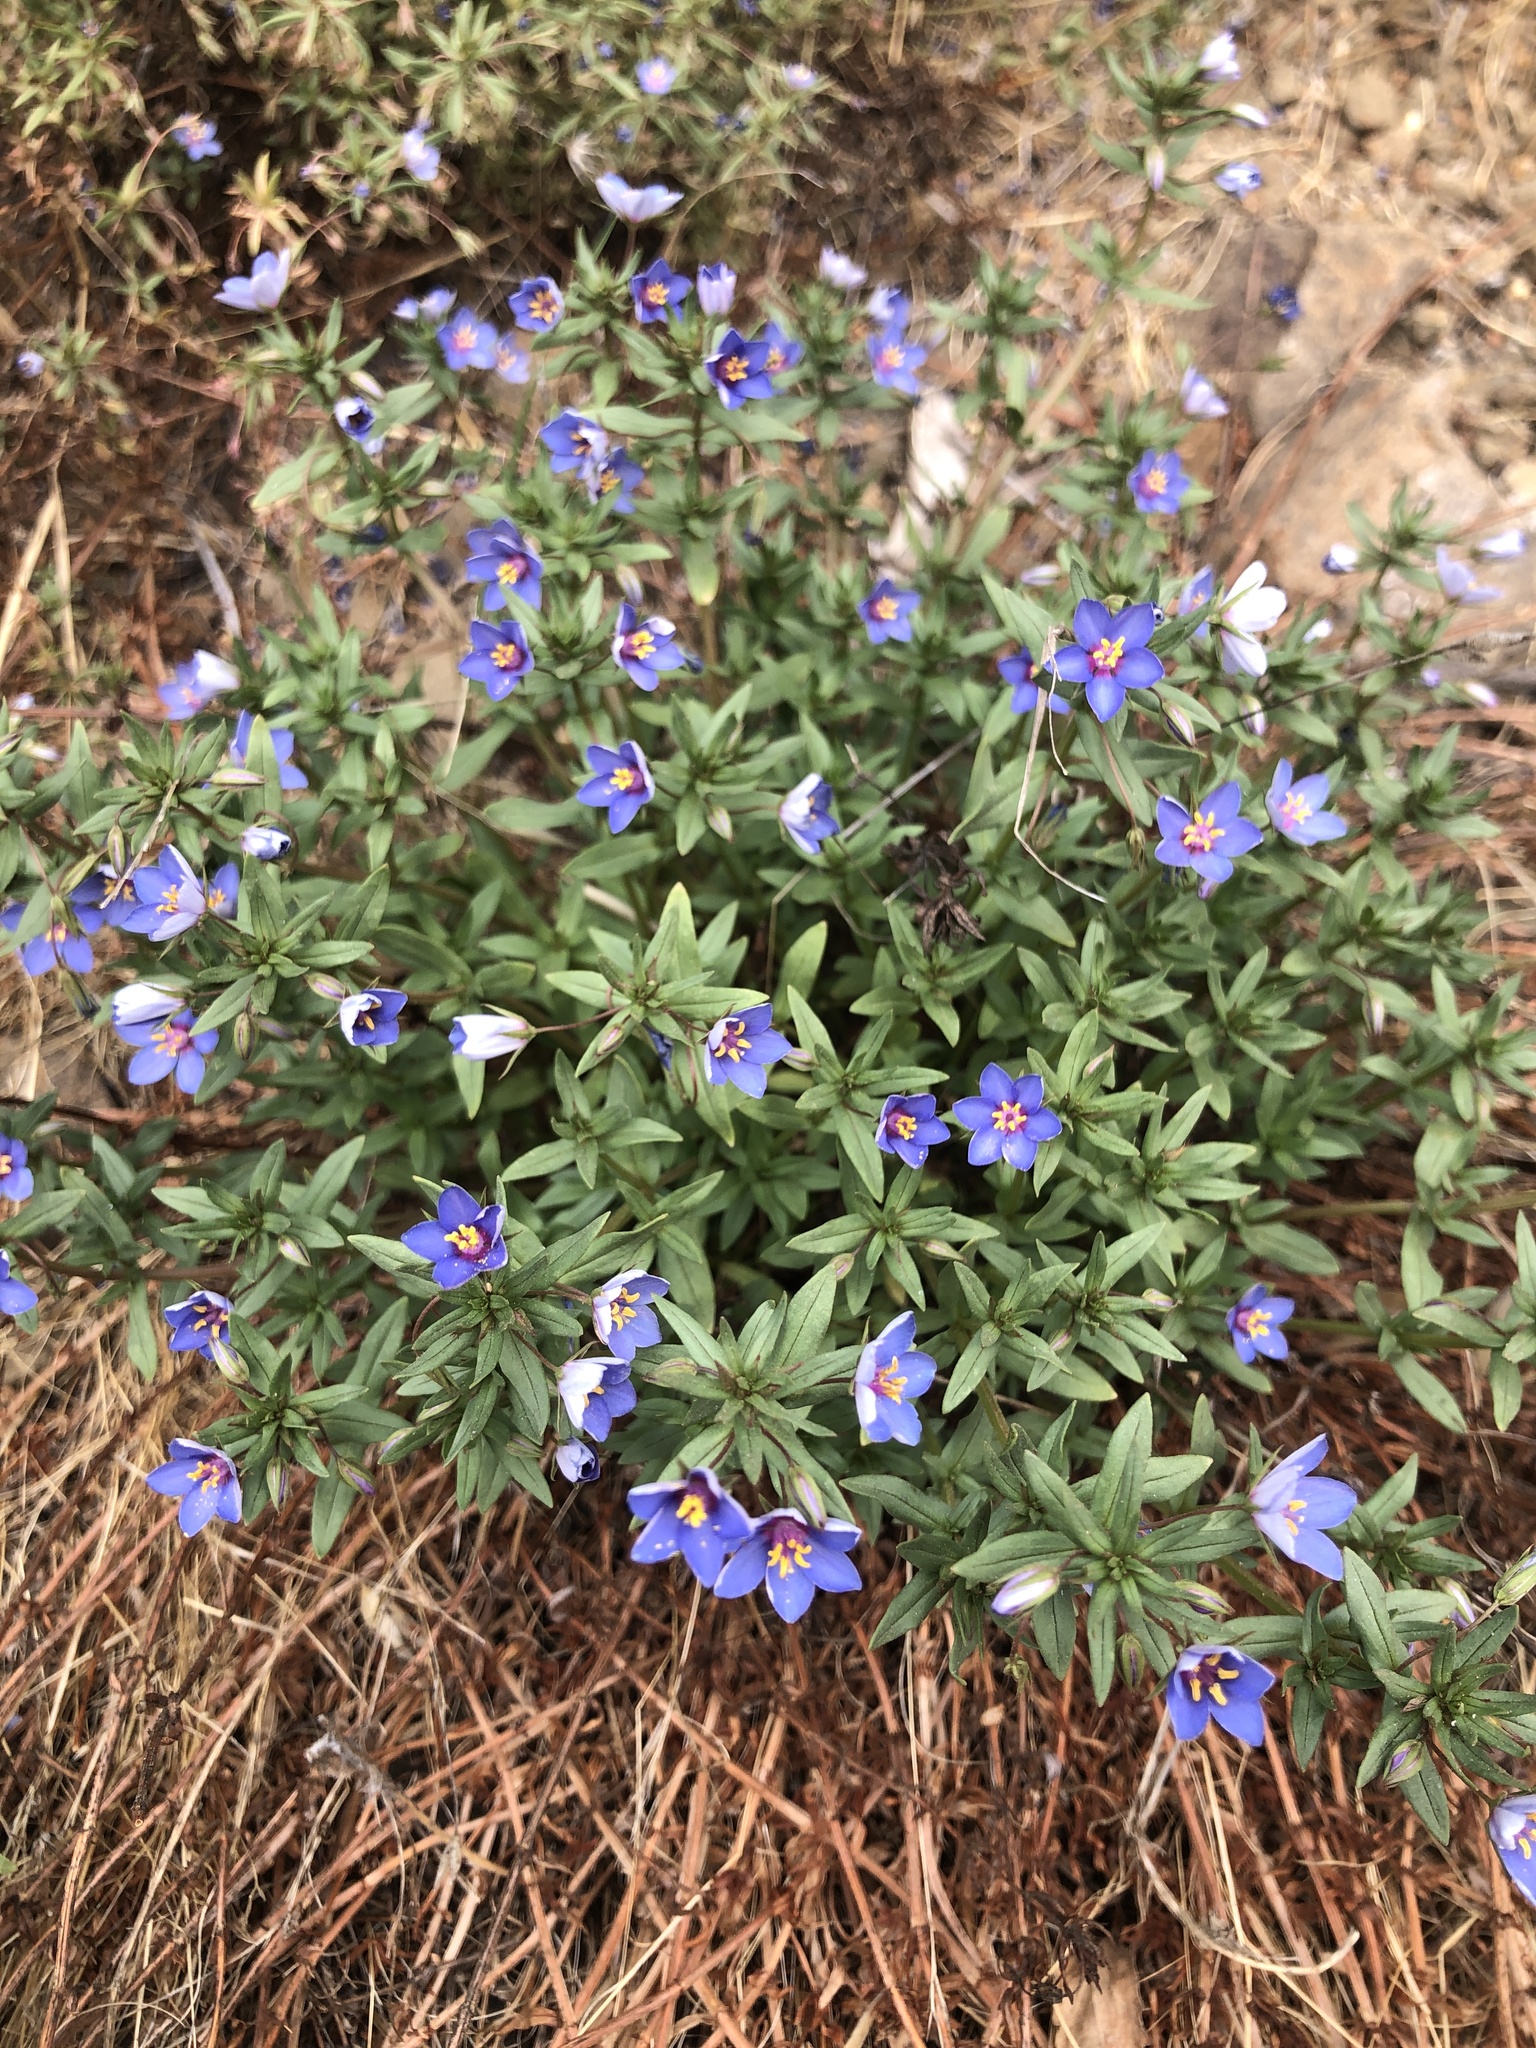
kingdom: Plantae
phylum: Tracheophyta
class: Magnoliopsida
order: Ericales
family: Primulaceae
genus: Lysimachia
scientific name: Lysimachia monelli
